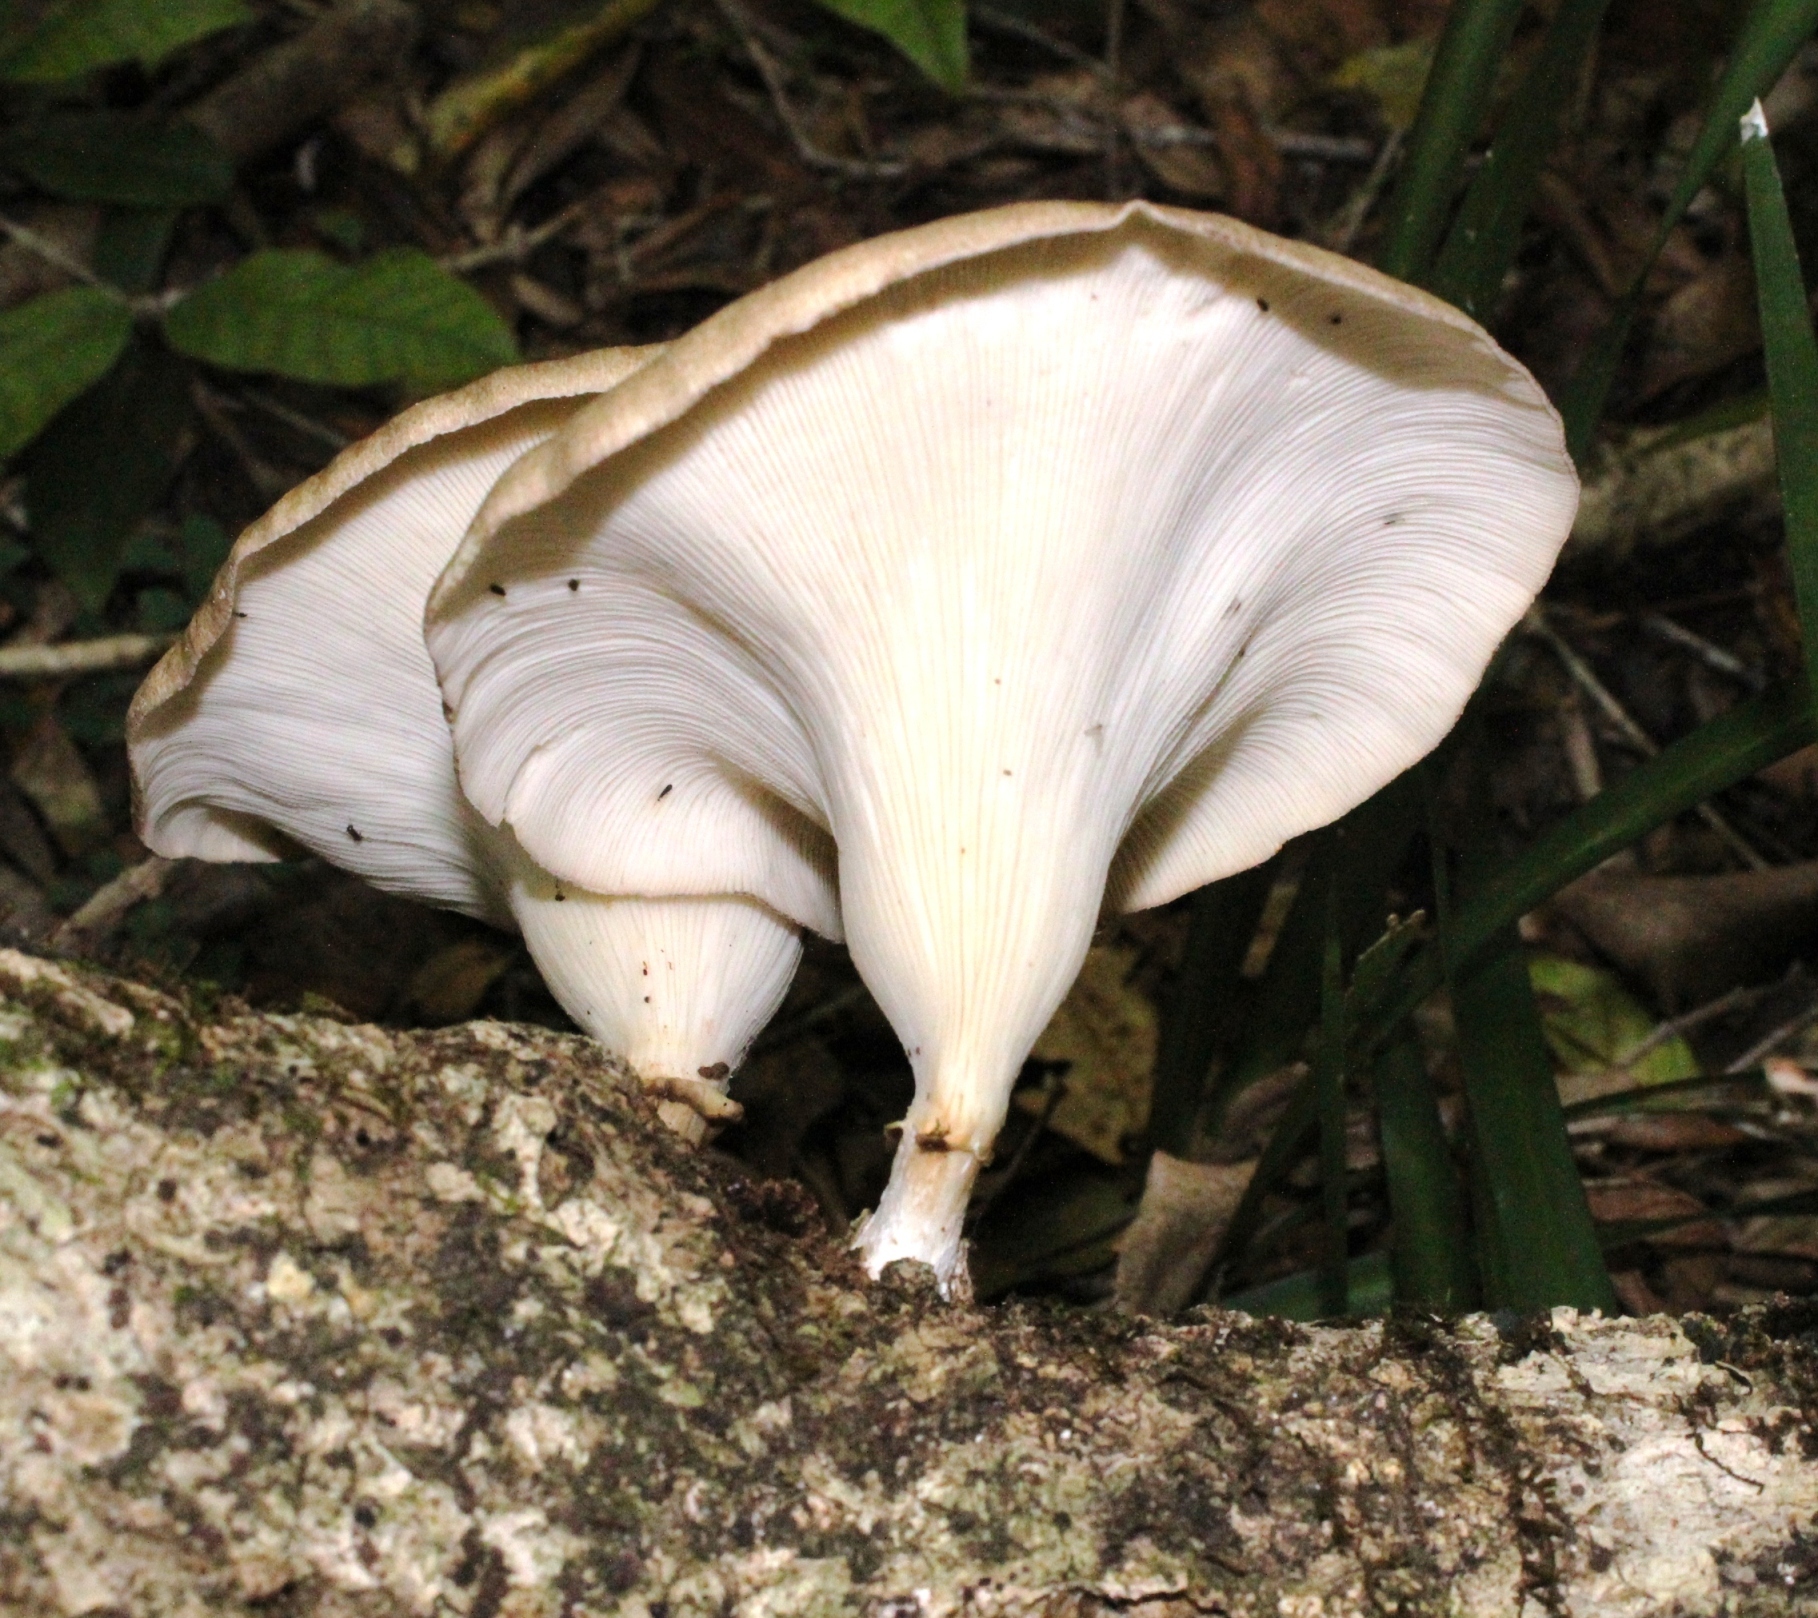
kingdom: Fungi
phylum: Basidiomycota
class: Agaricomycetes
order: Polyporales
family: Polyporaceae
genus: Lentinus
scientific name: Lentinus sajor-caju
